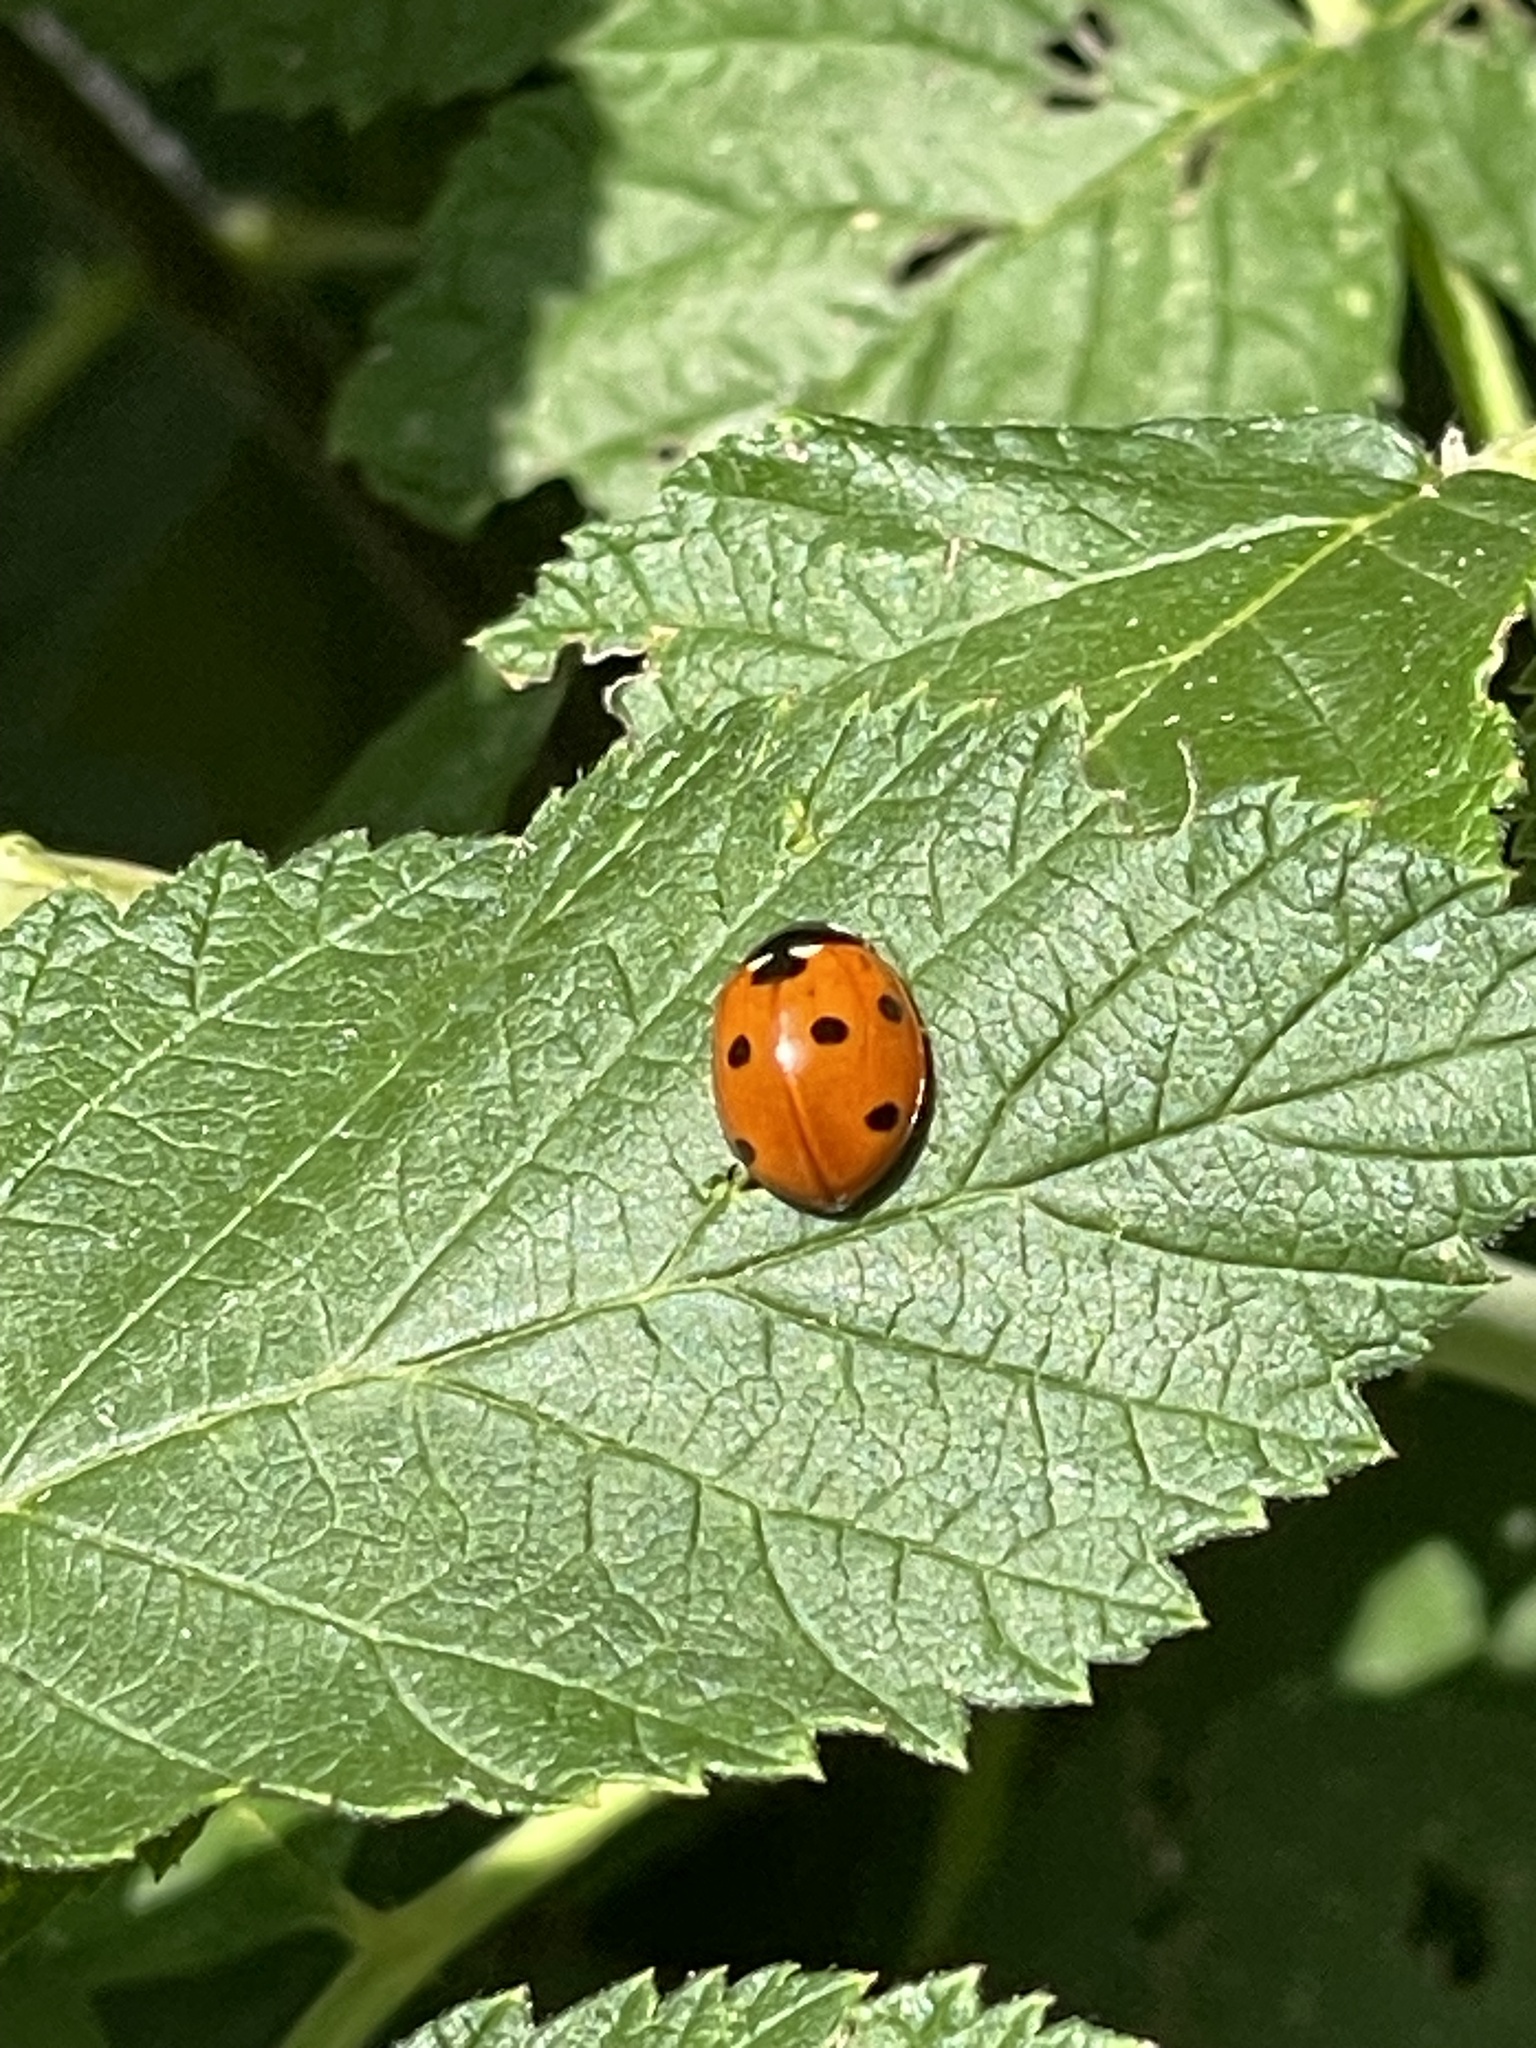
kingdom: Animalia
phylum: Arthropoda
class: Insecta
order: Coleoptera
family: Coccinellidae
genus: Coccinella
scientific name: Coccinella septempunctata
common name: Sevenspotted lady beetle
